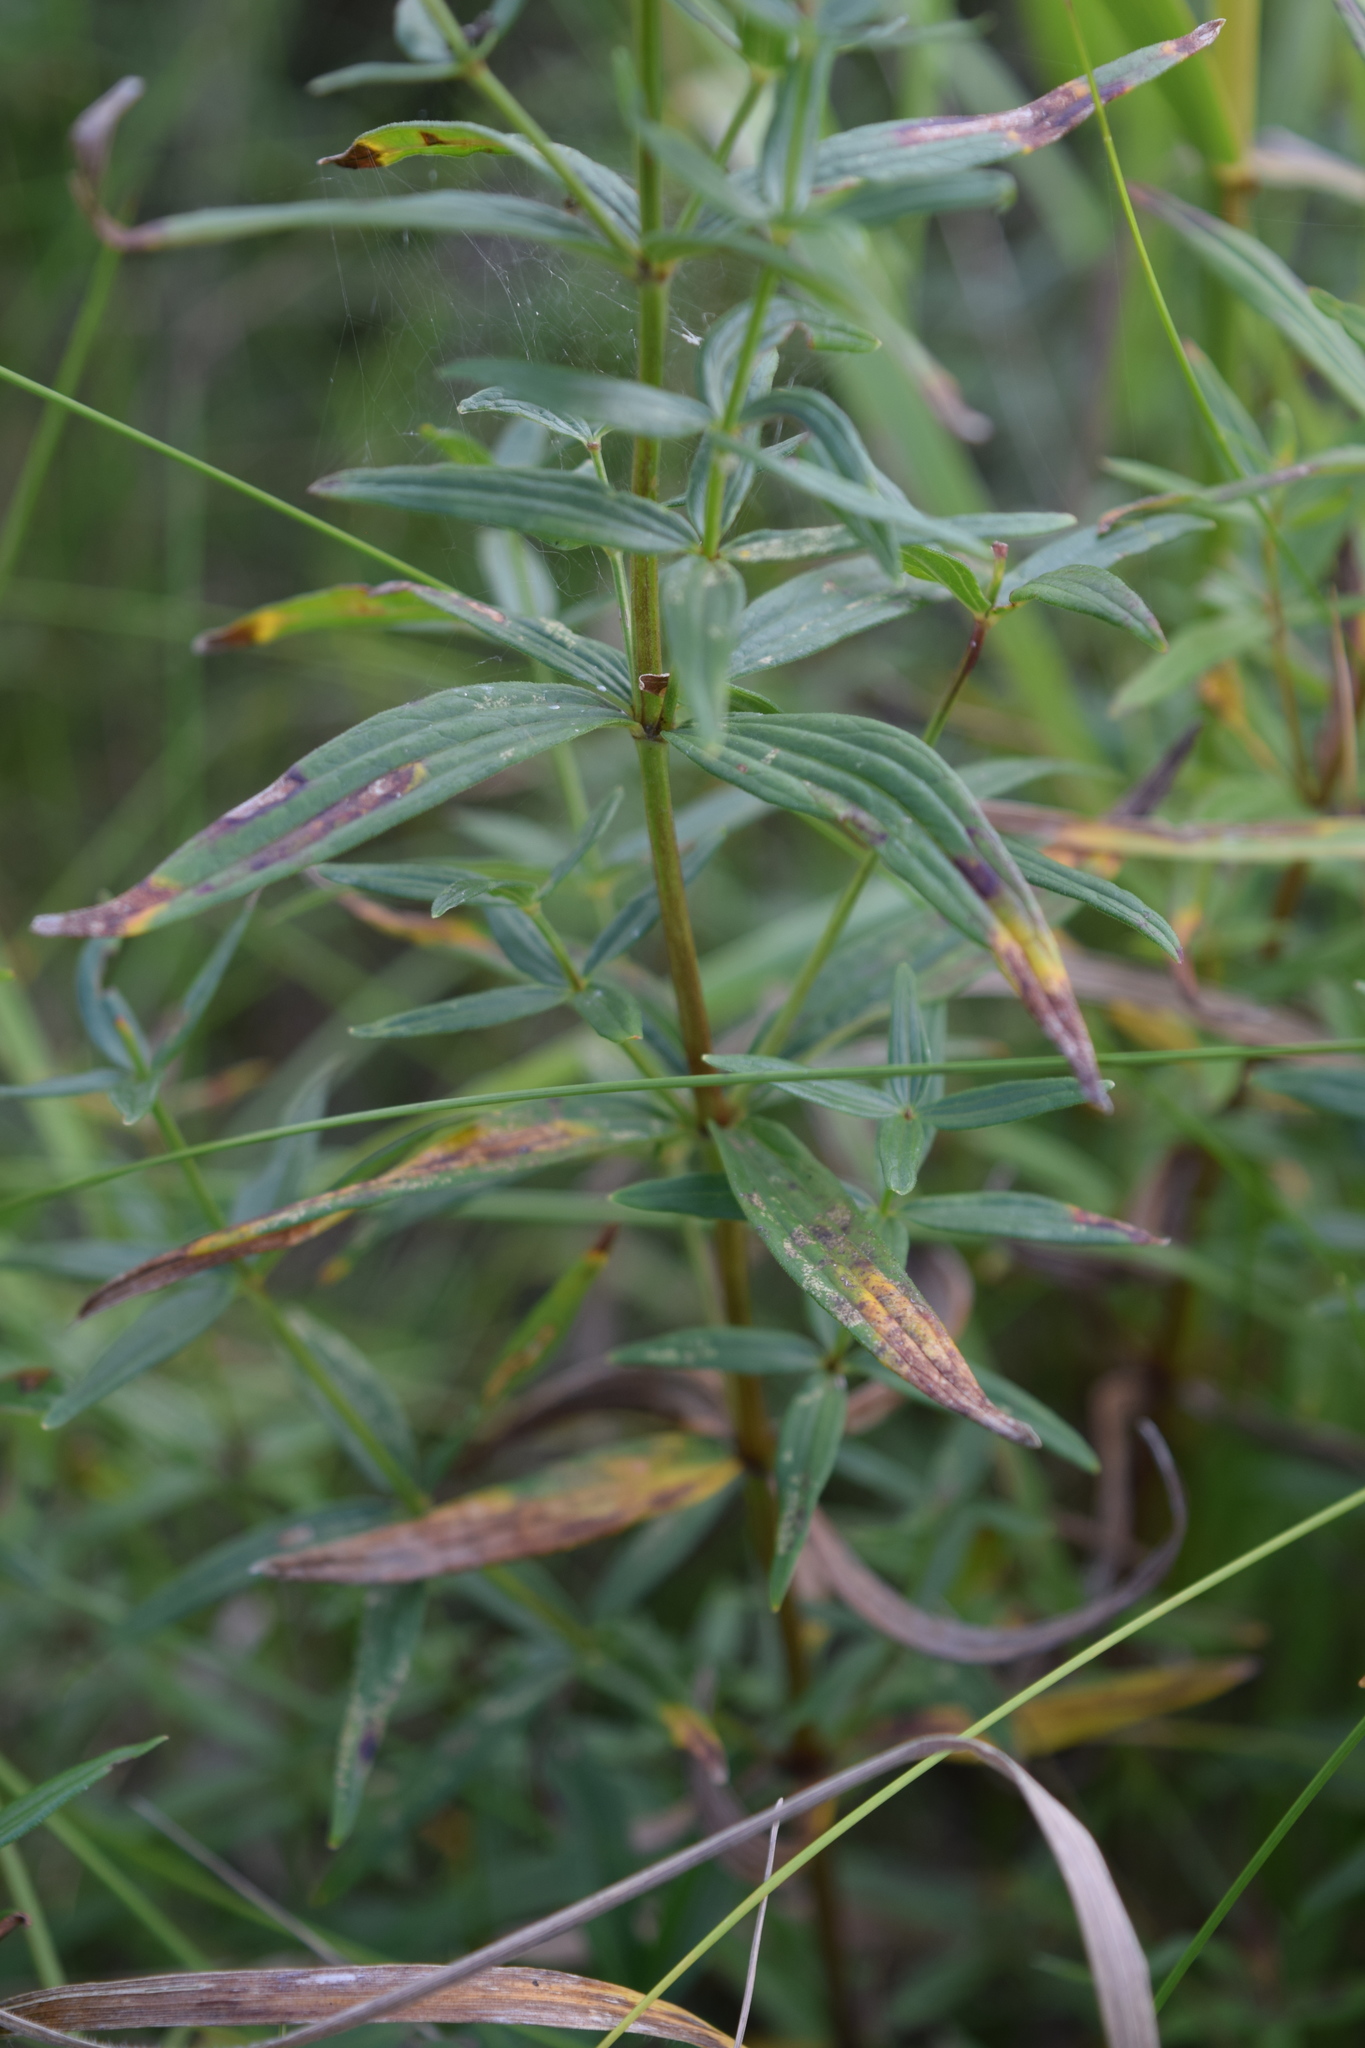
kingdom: Plantae
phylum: Tracheophyta
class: Magnoliopsida
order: Gentianales
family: Rubiaceae
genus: Galium
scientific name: Galium boreale
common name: Northern bedstraw
